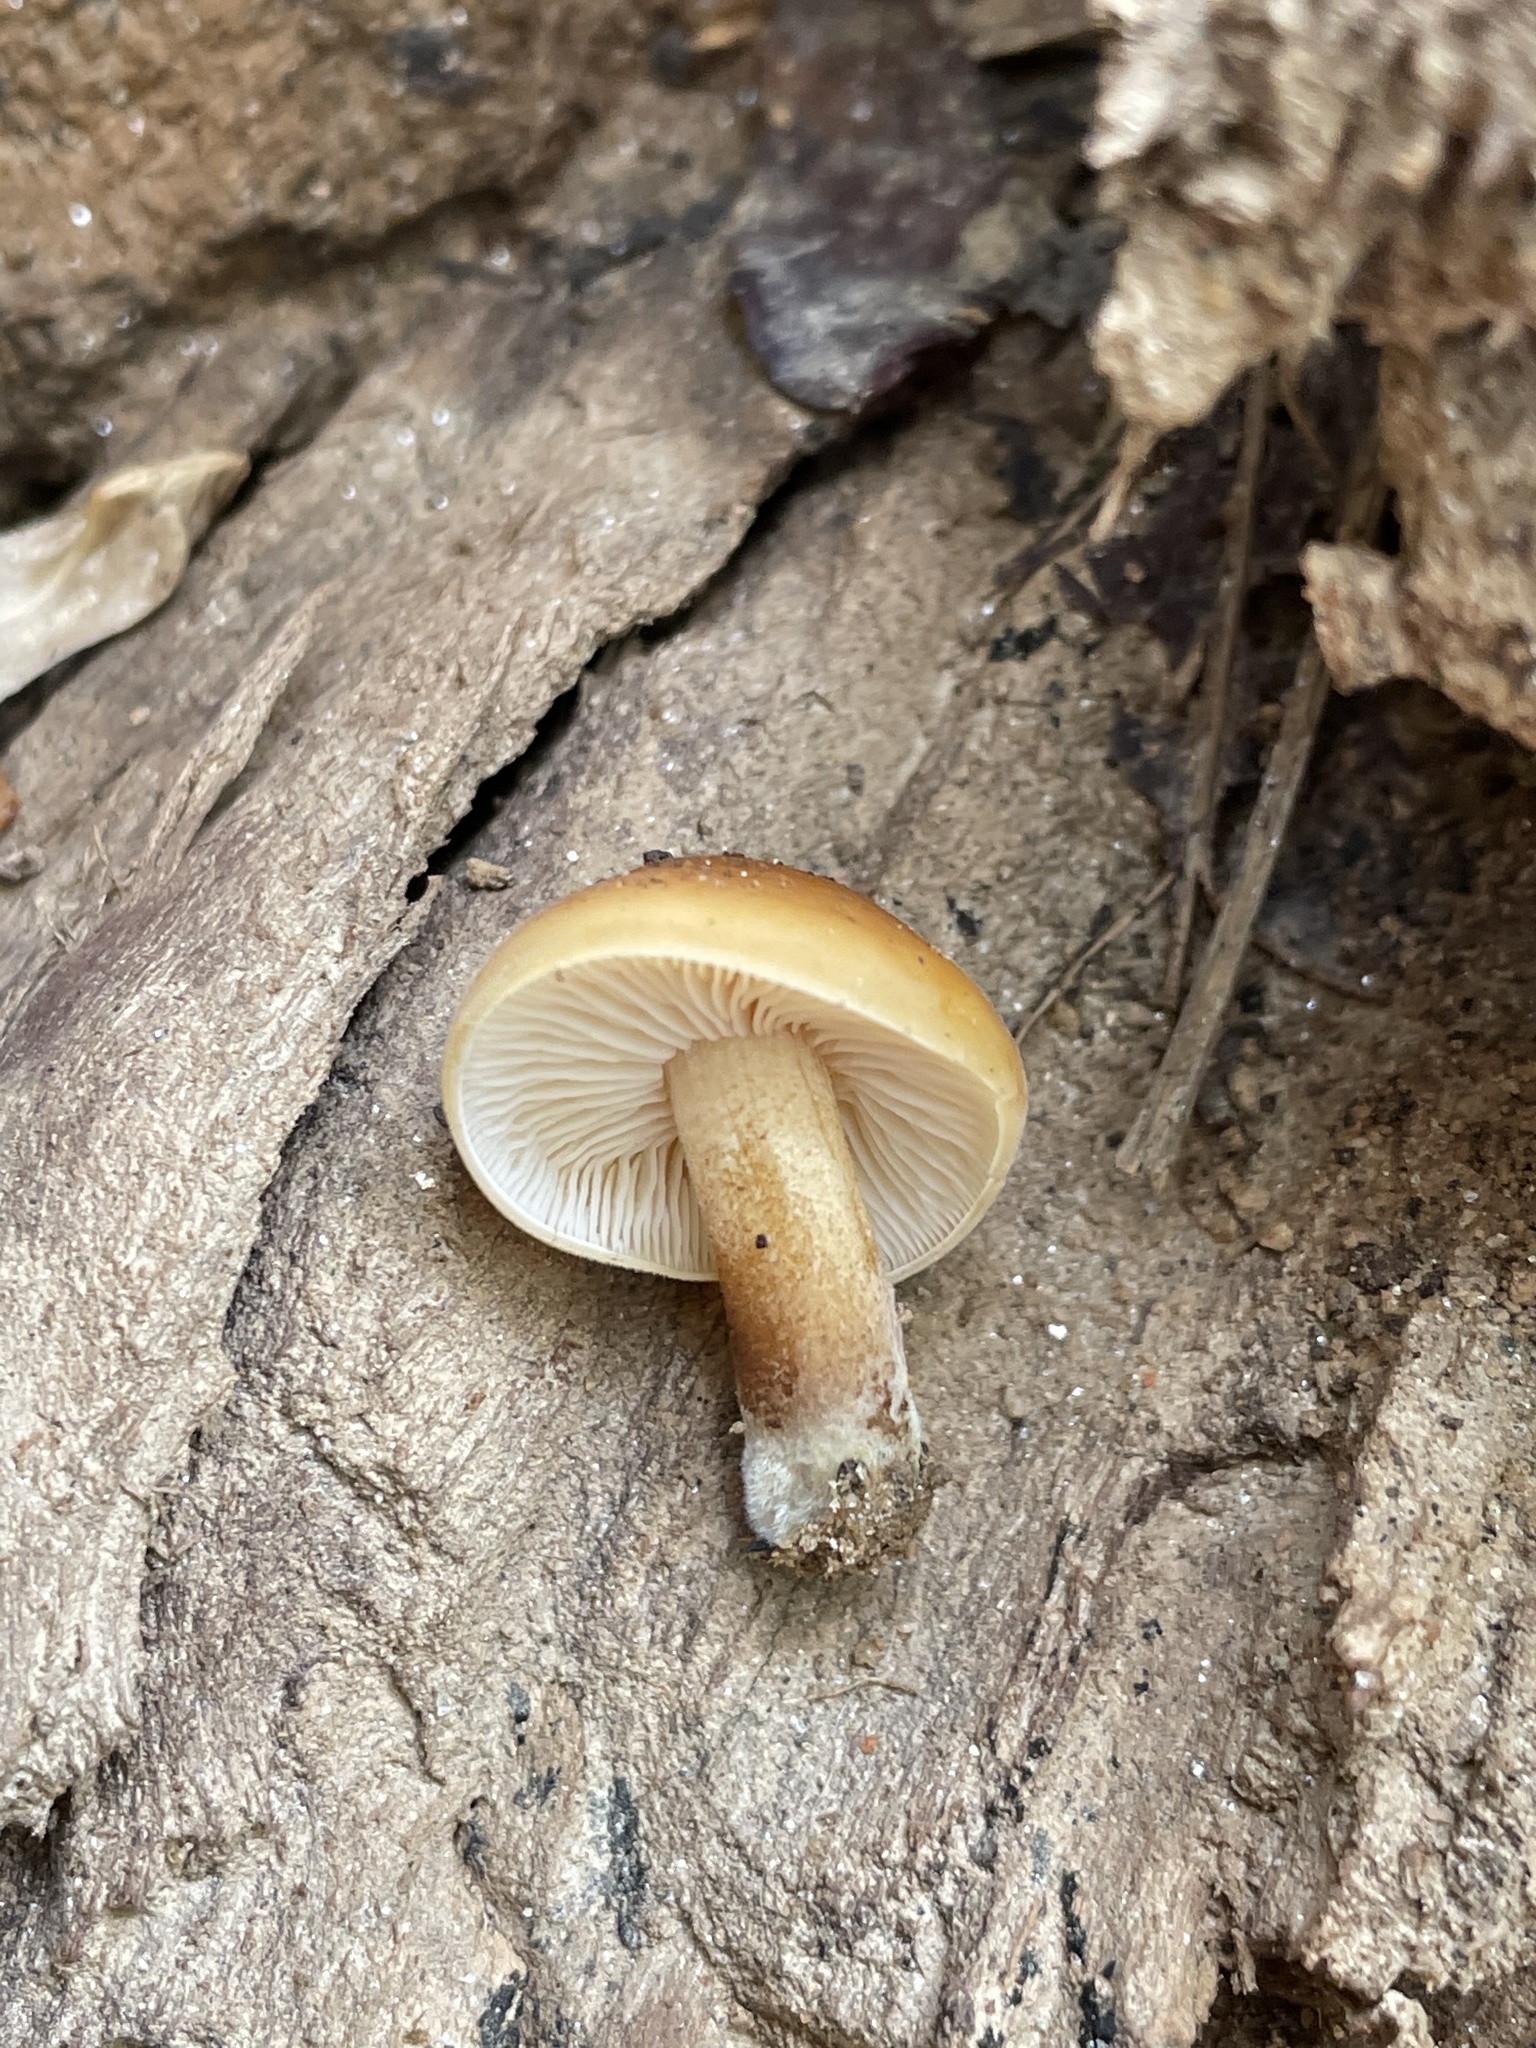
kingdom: Fungi
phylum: Basidiomycota
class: Agaricomycetes
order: Agaricales
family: Physalacriaceae
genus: Flammulina
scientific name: Flammulina velutipes
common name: Velvet shank
